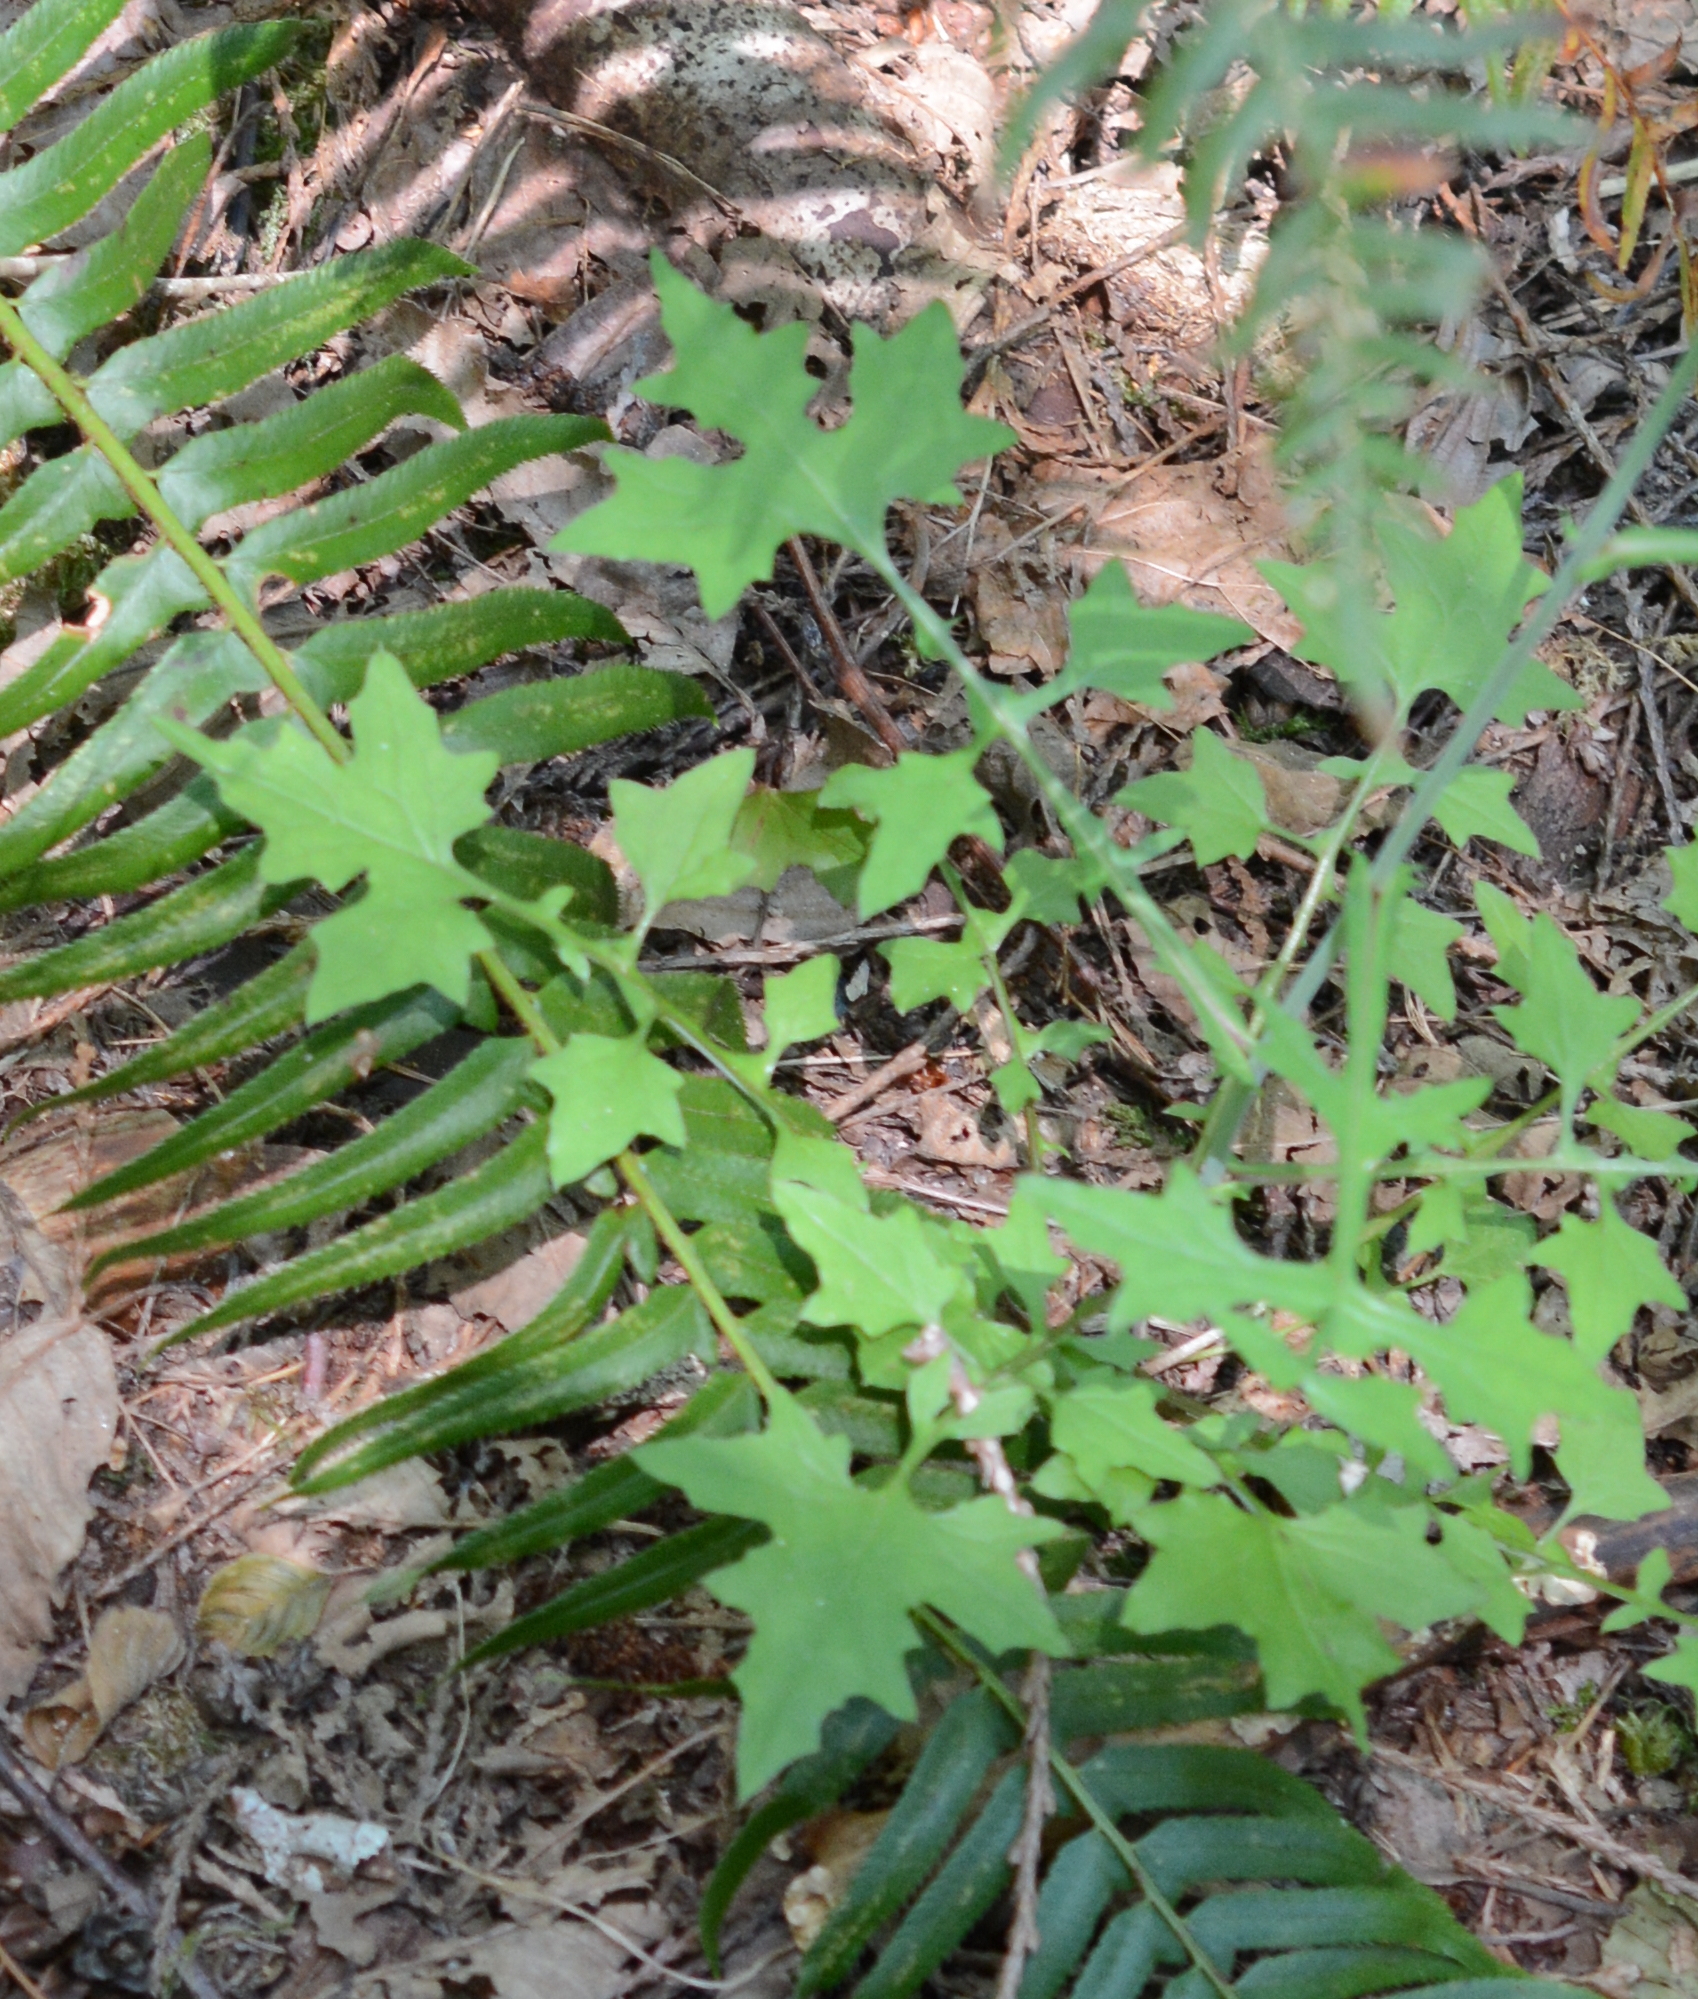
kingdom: Plantae
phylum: Tracheophyta
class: Magnoliopsida
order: Asterales
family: Asteraceae
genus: Mycelis
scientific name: Mycelis muralis
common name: Wall lettuce
